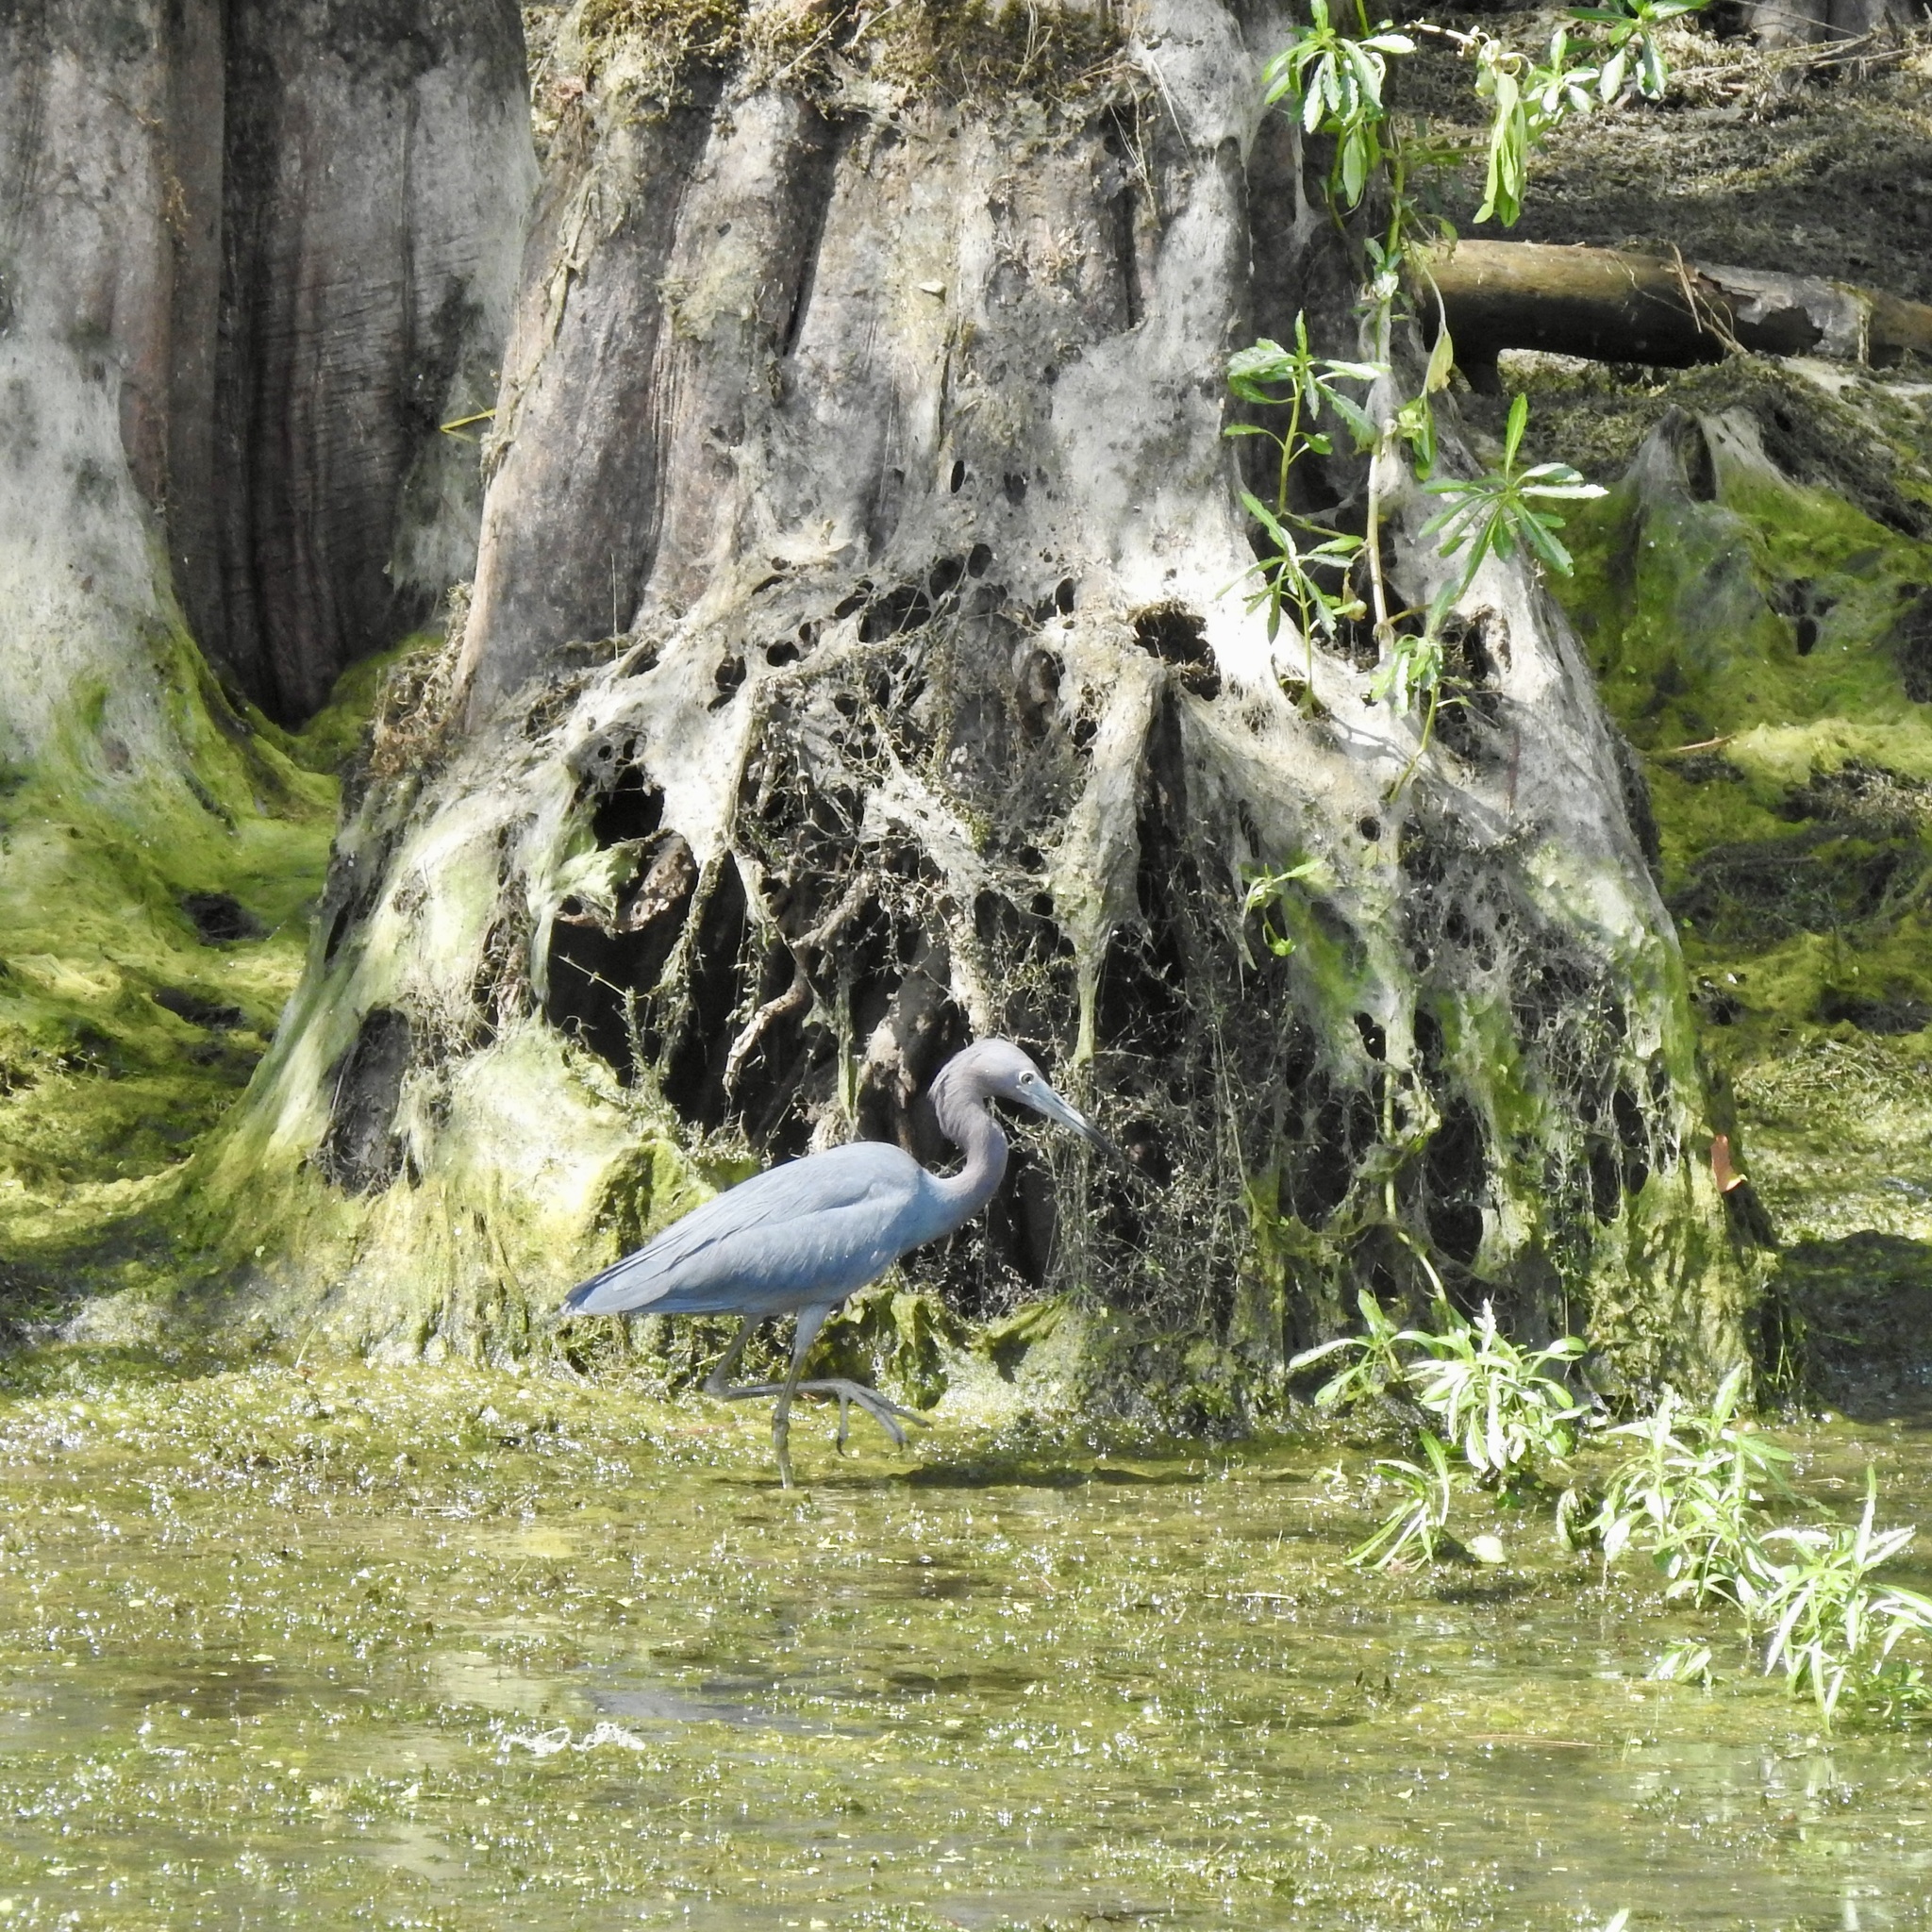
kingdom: Animalia
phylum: Chordata
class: Aves
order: Pelecaniformes
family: Ardeidae
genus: Egretta
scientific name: Egretta caerulea
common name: Little blue heron
